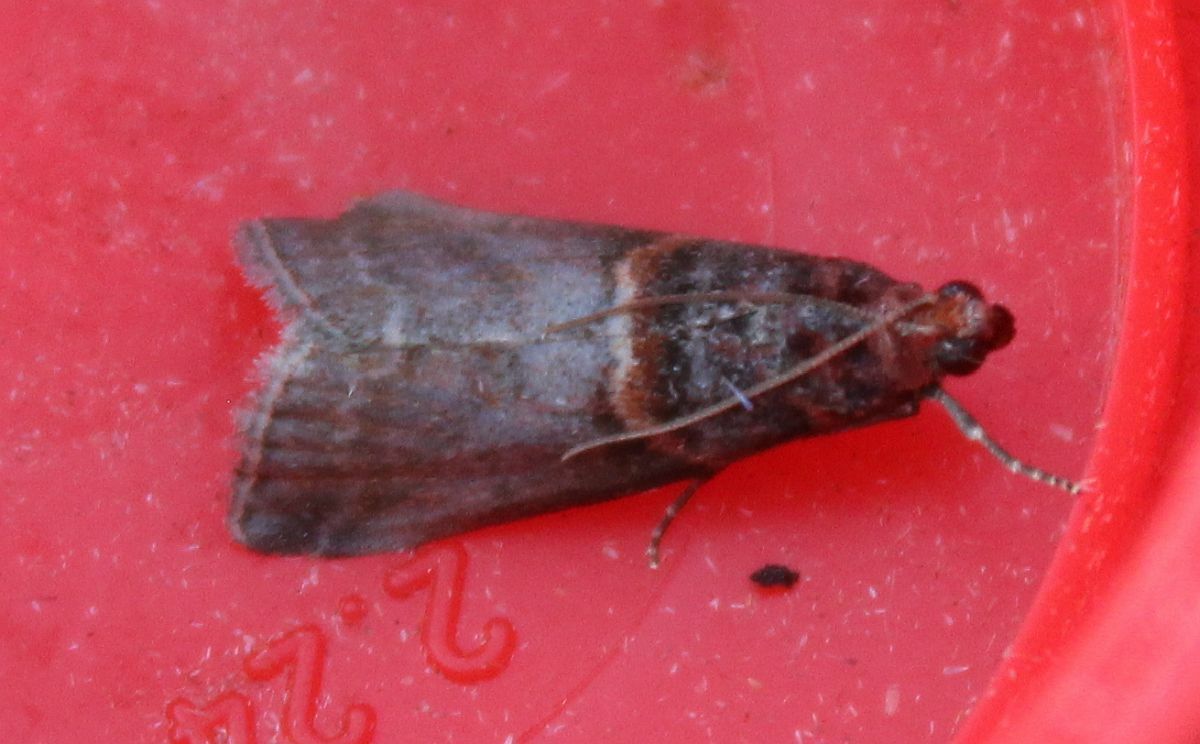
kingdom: Animalia
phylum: Arthropoda
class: Insecta
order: Lepidoptera
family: Pyralidae
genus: Acrobasis
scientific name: Acrobasis advenella
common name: Grey knot-horn
